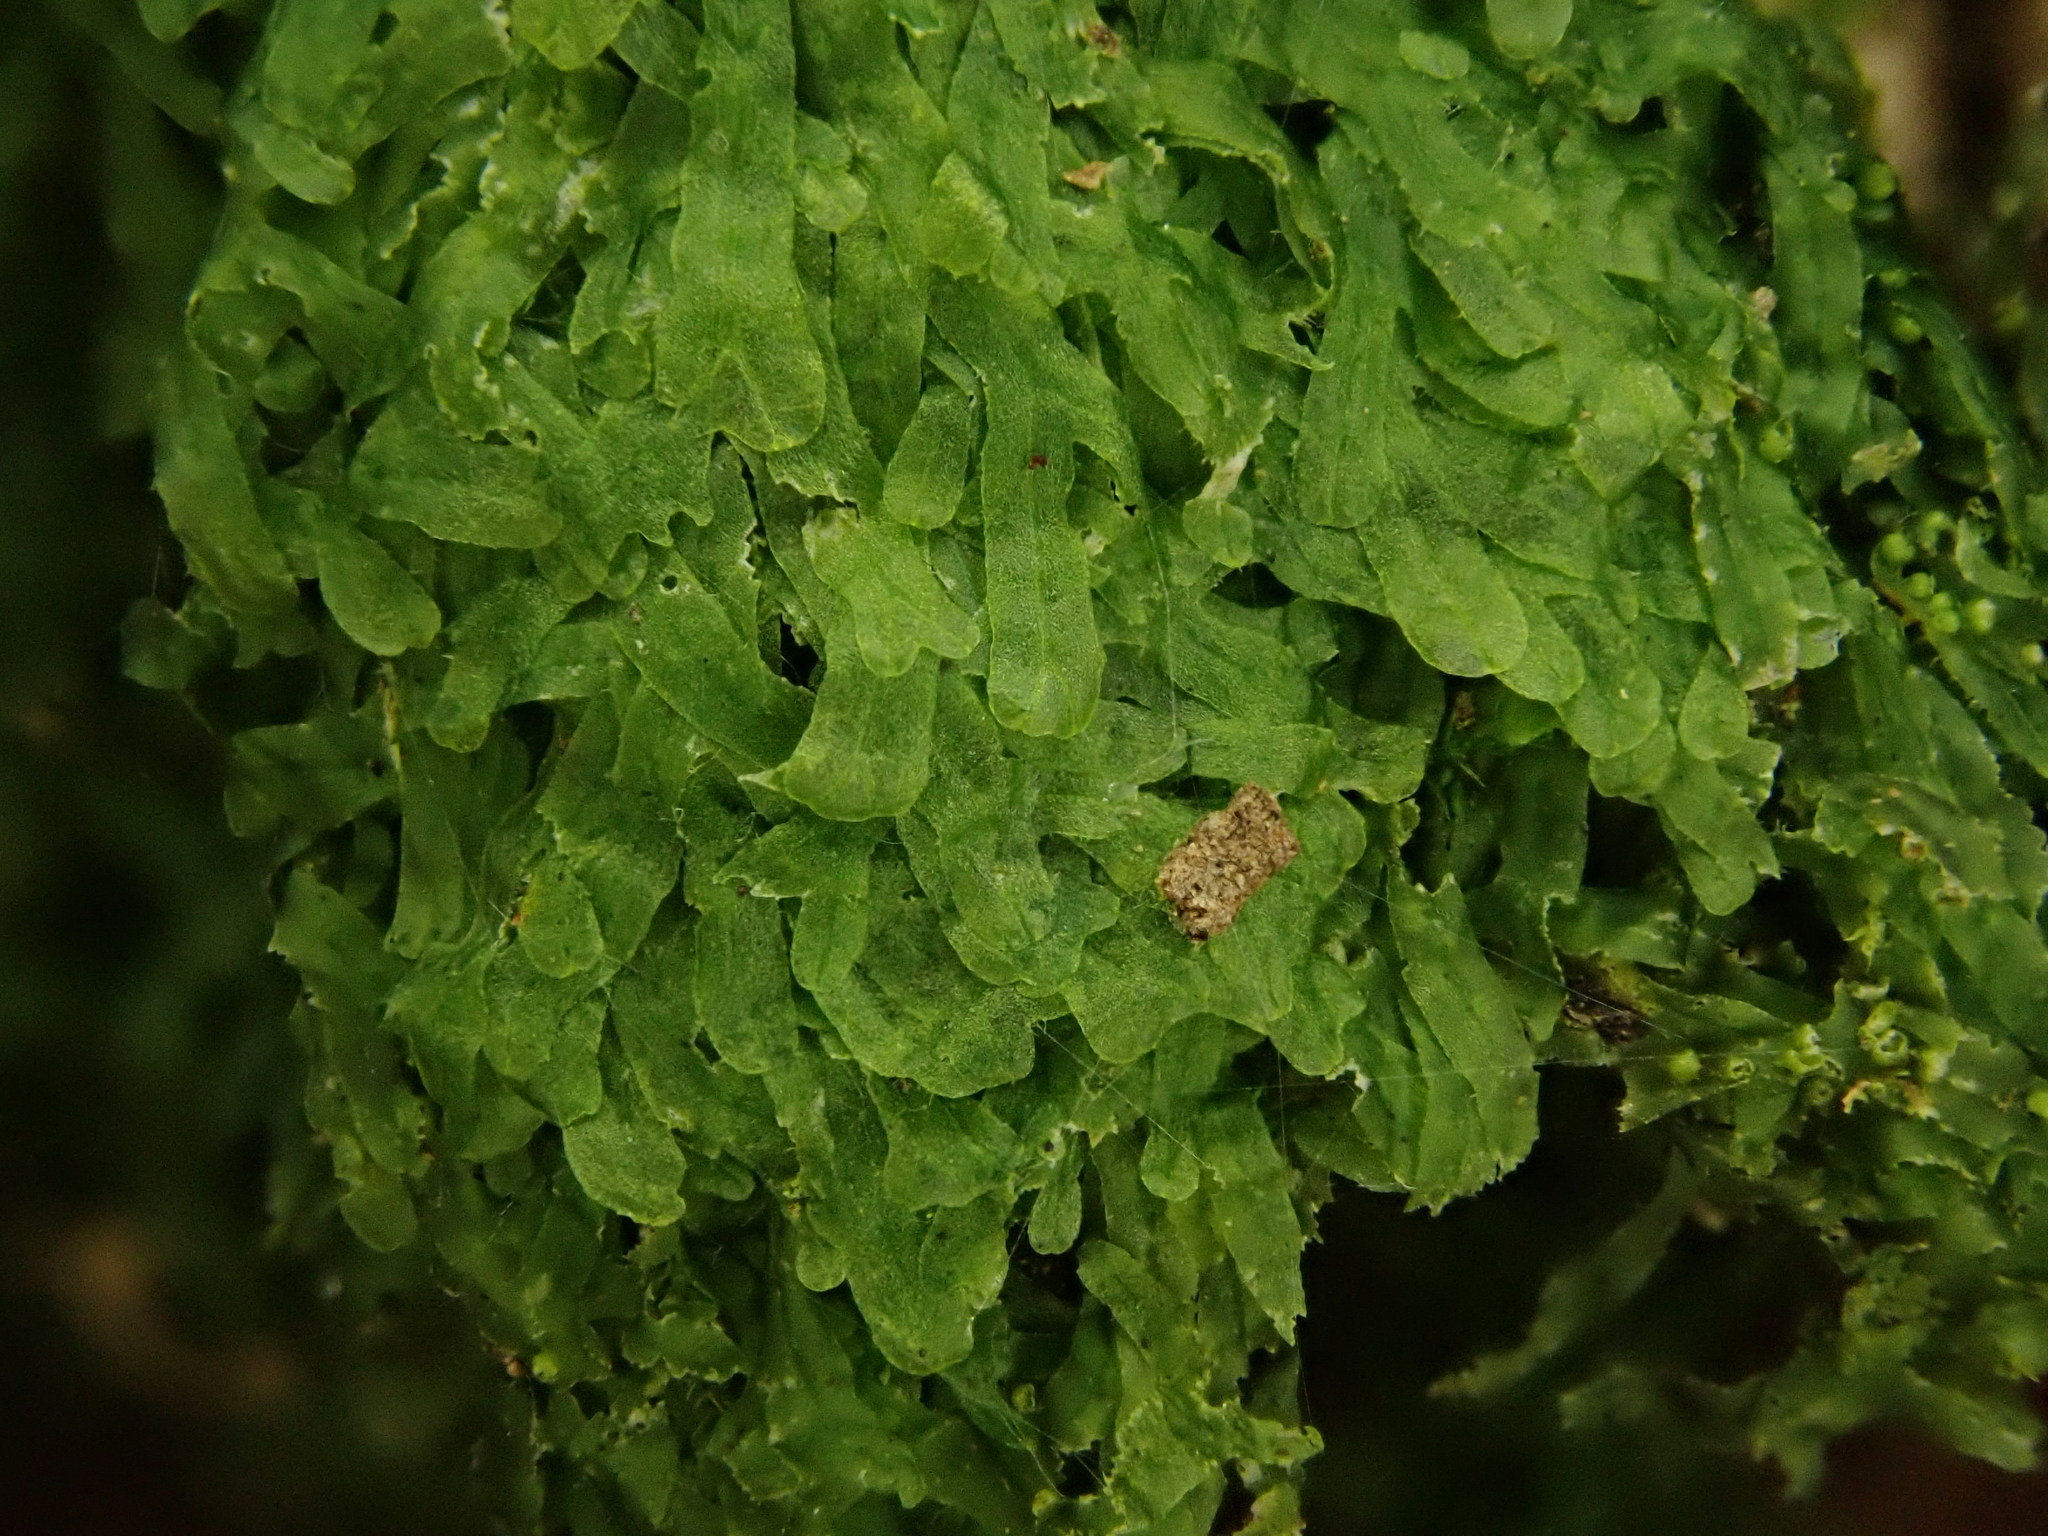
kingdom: Plantae
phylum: Marchantiophyta
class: Jungermanniopsida
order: Metzgeriales
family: Metzgeriaceae
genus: Metzgeria
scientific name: Metzgeria furcata
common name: Forked veilwort
